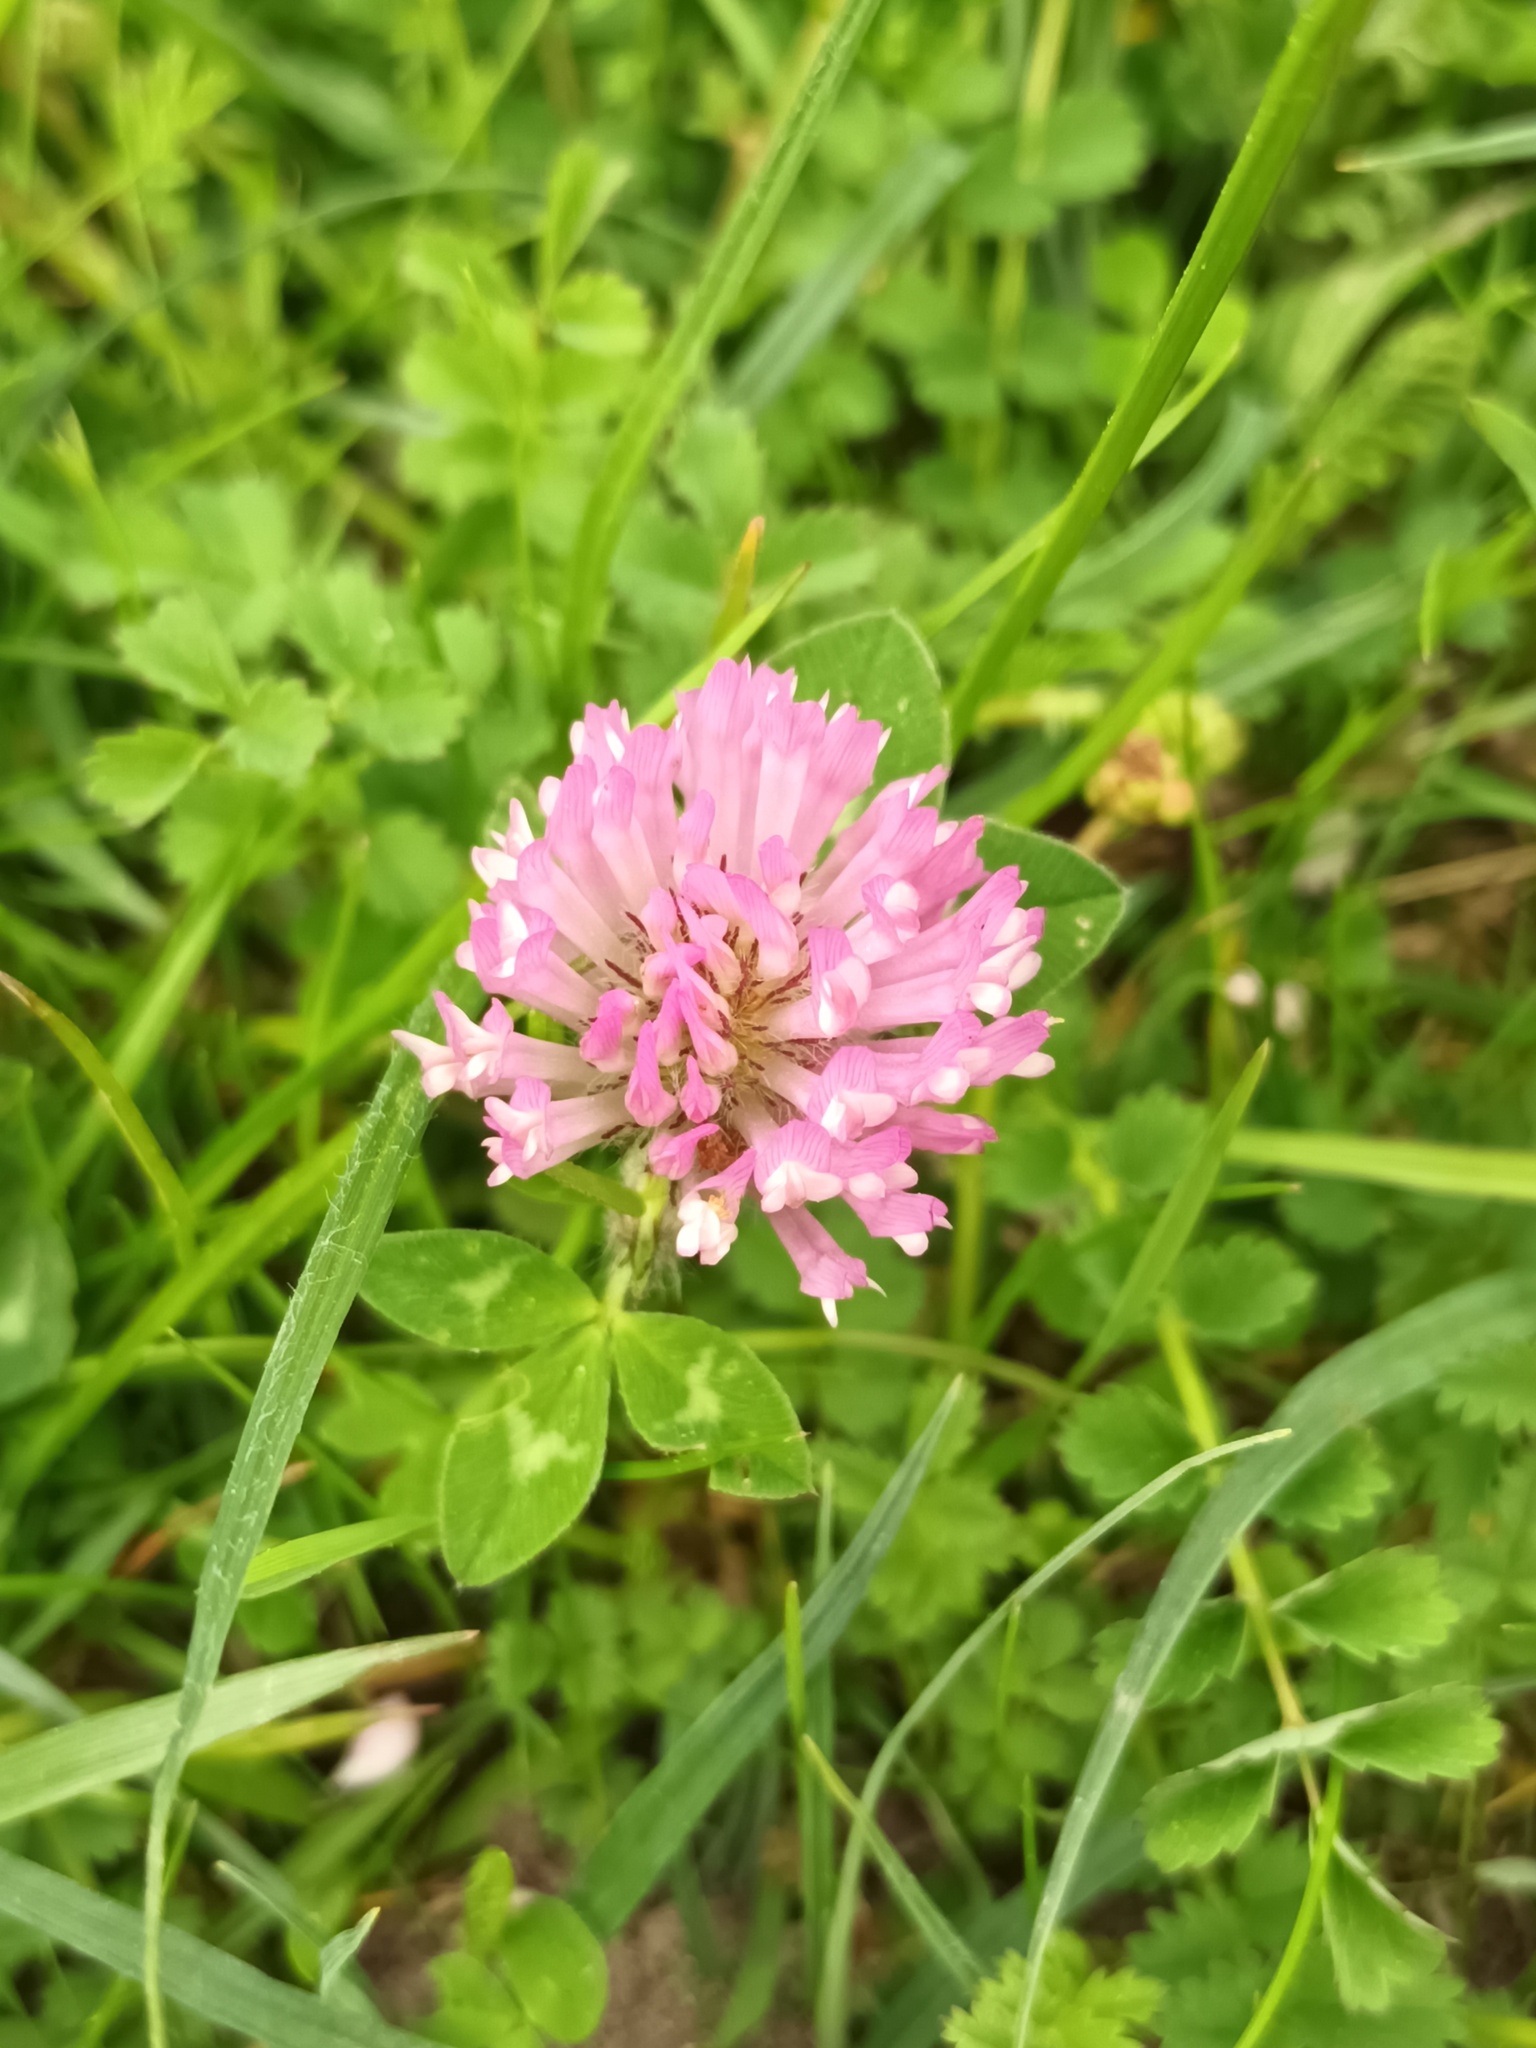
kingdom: Plantae
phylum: Tracheophyta
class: Magnoliopsida
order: Fabales
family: Fabaceae
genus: Trifolium
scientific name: Trifolium pratense
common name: Red clover
